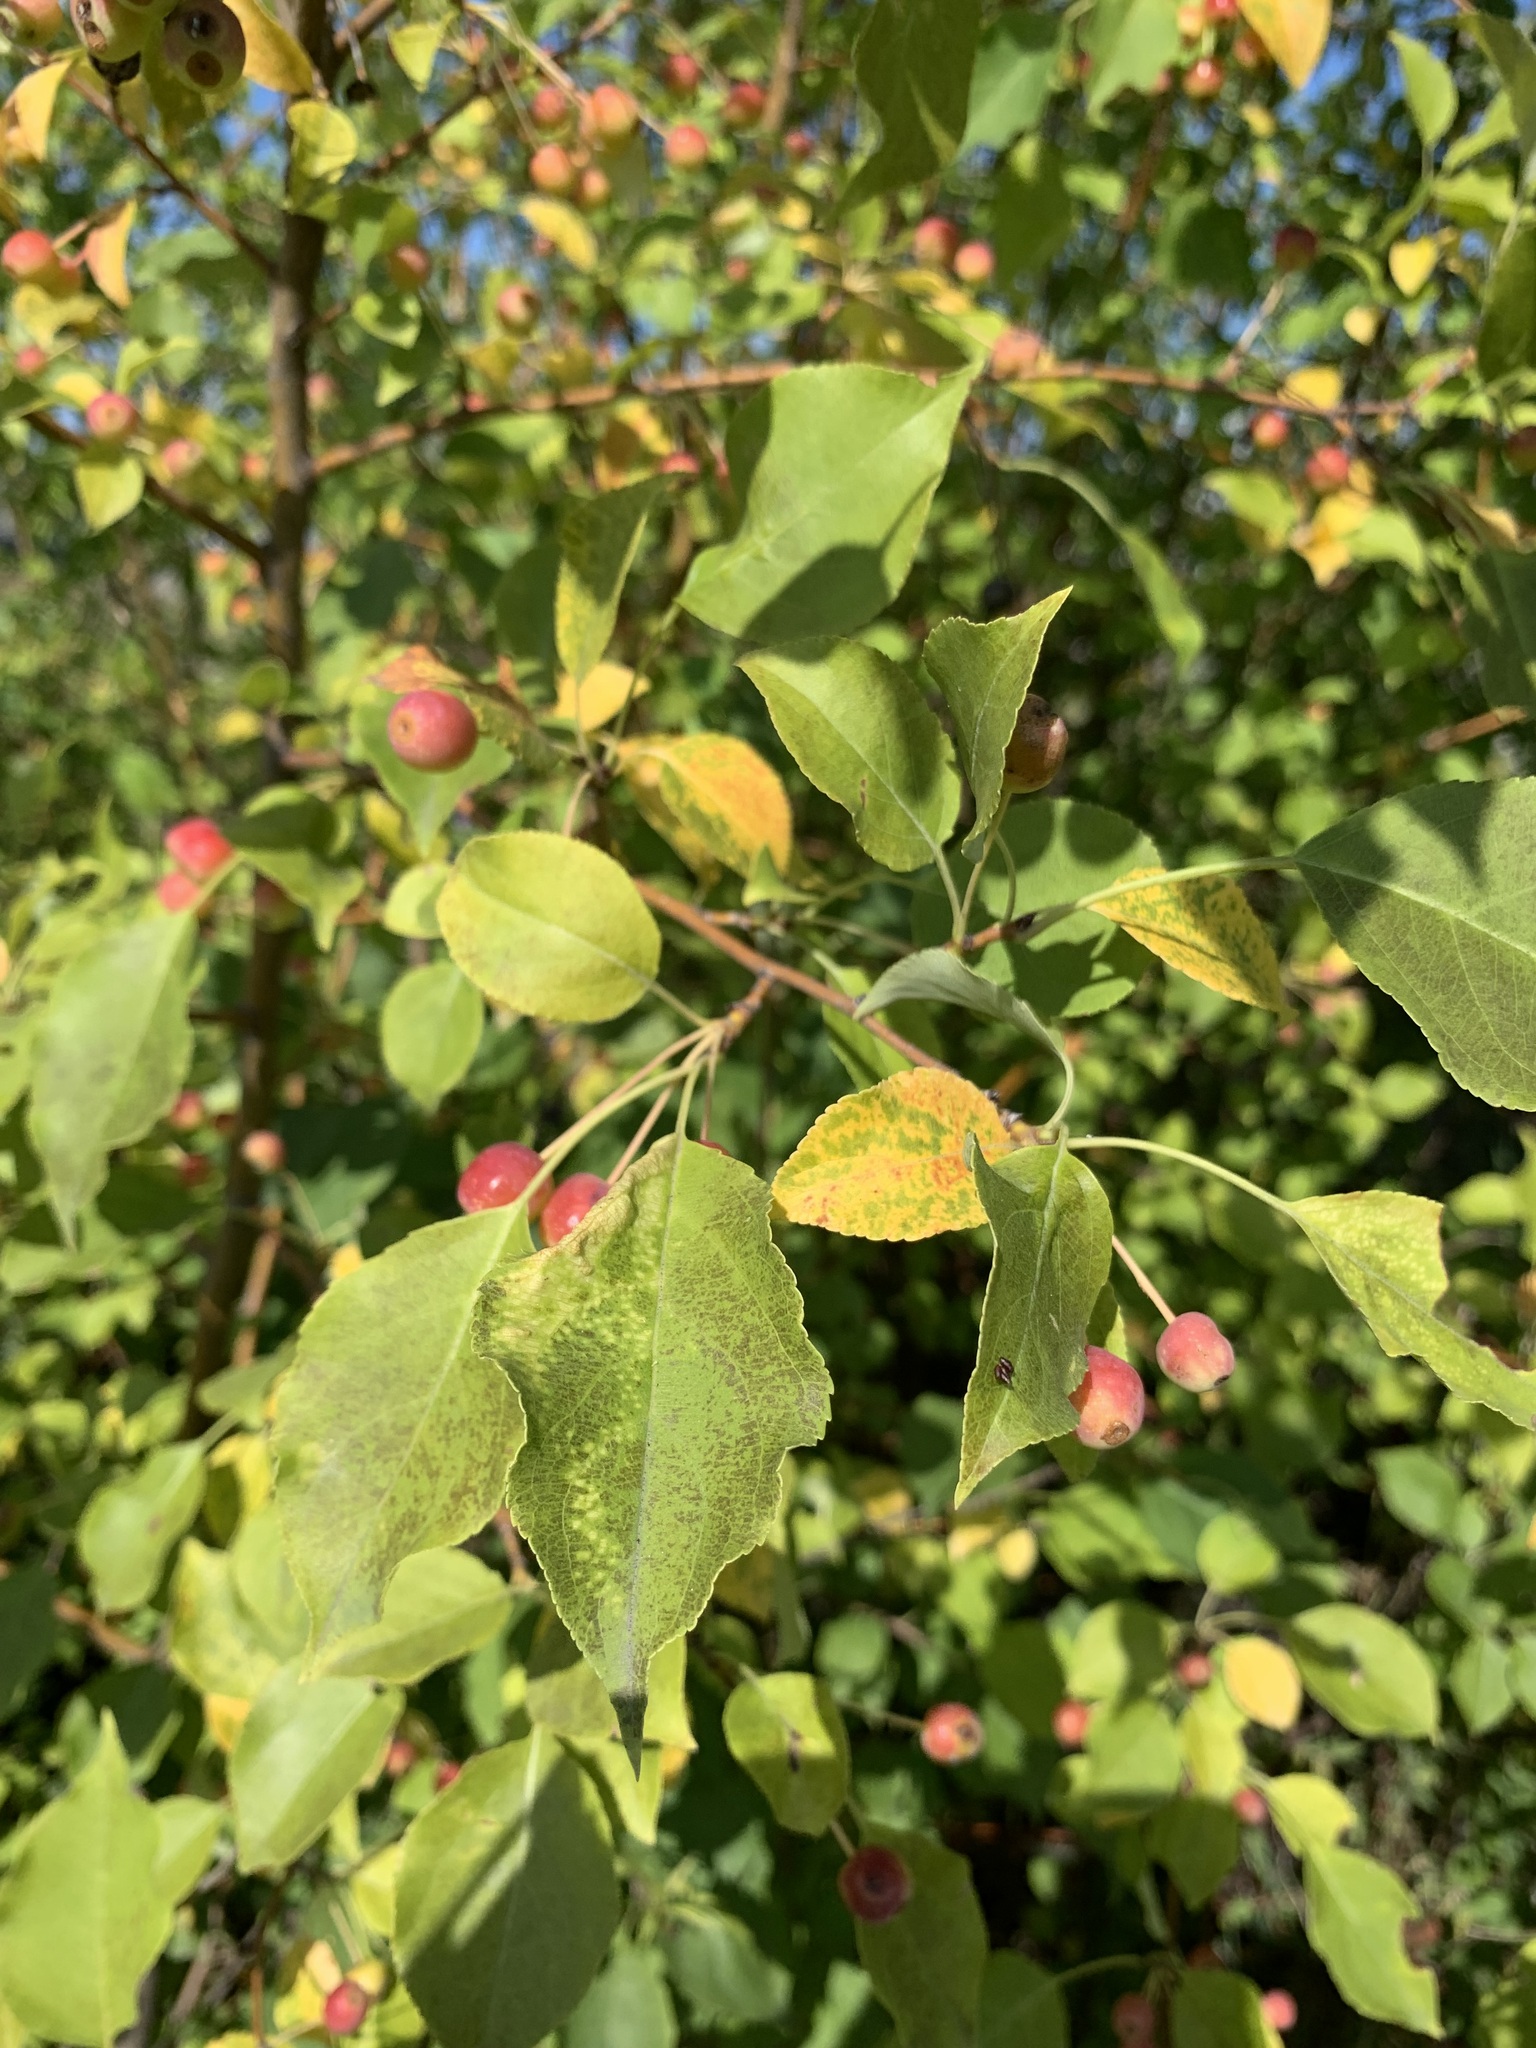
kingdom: Plantae
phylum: Tracheophyta
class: Magnoliopsida
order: Rosales
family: Rosaceae
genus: Malus
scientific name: Malus baccata
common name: Siberian crab
